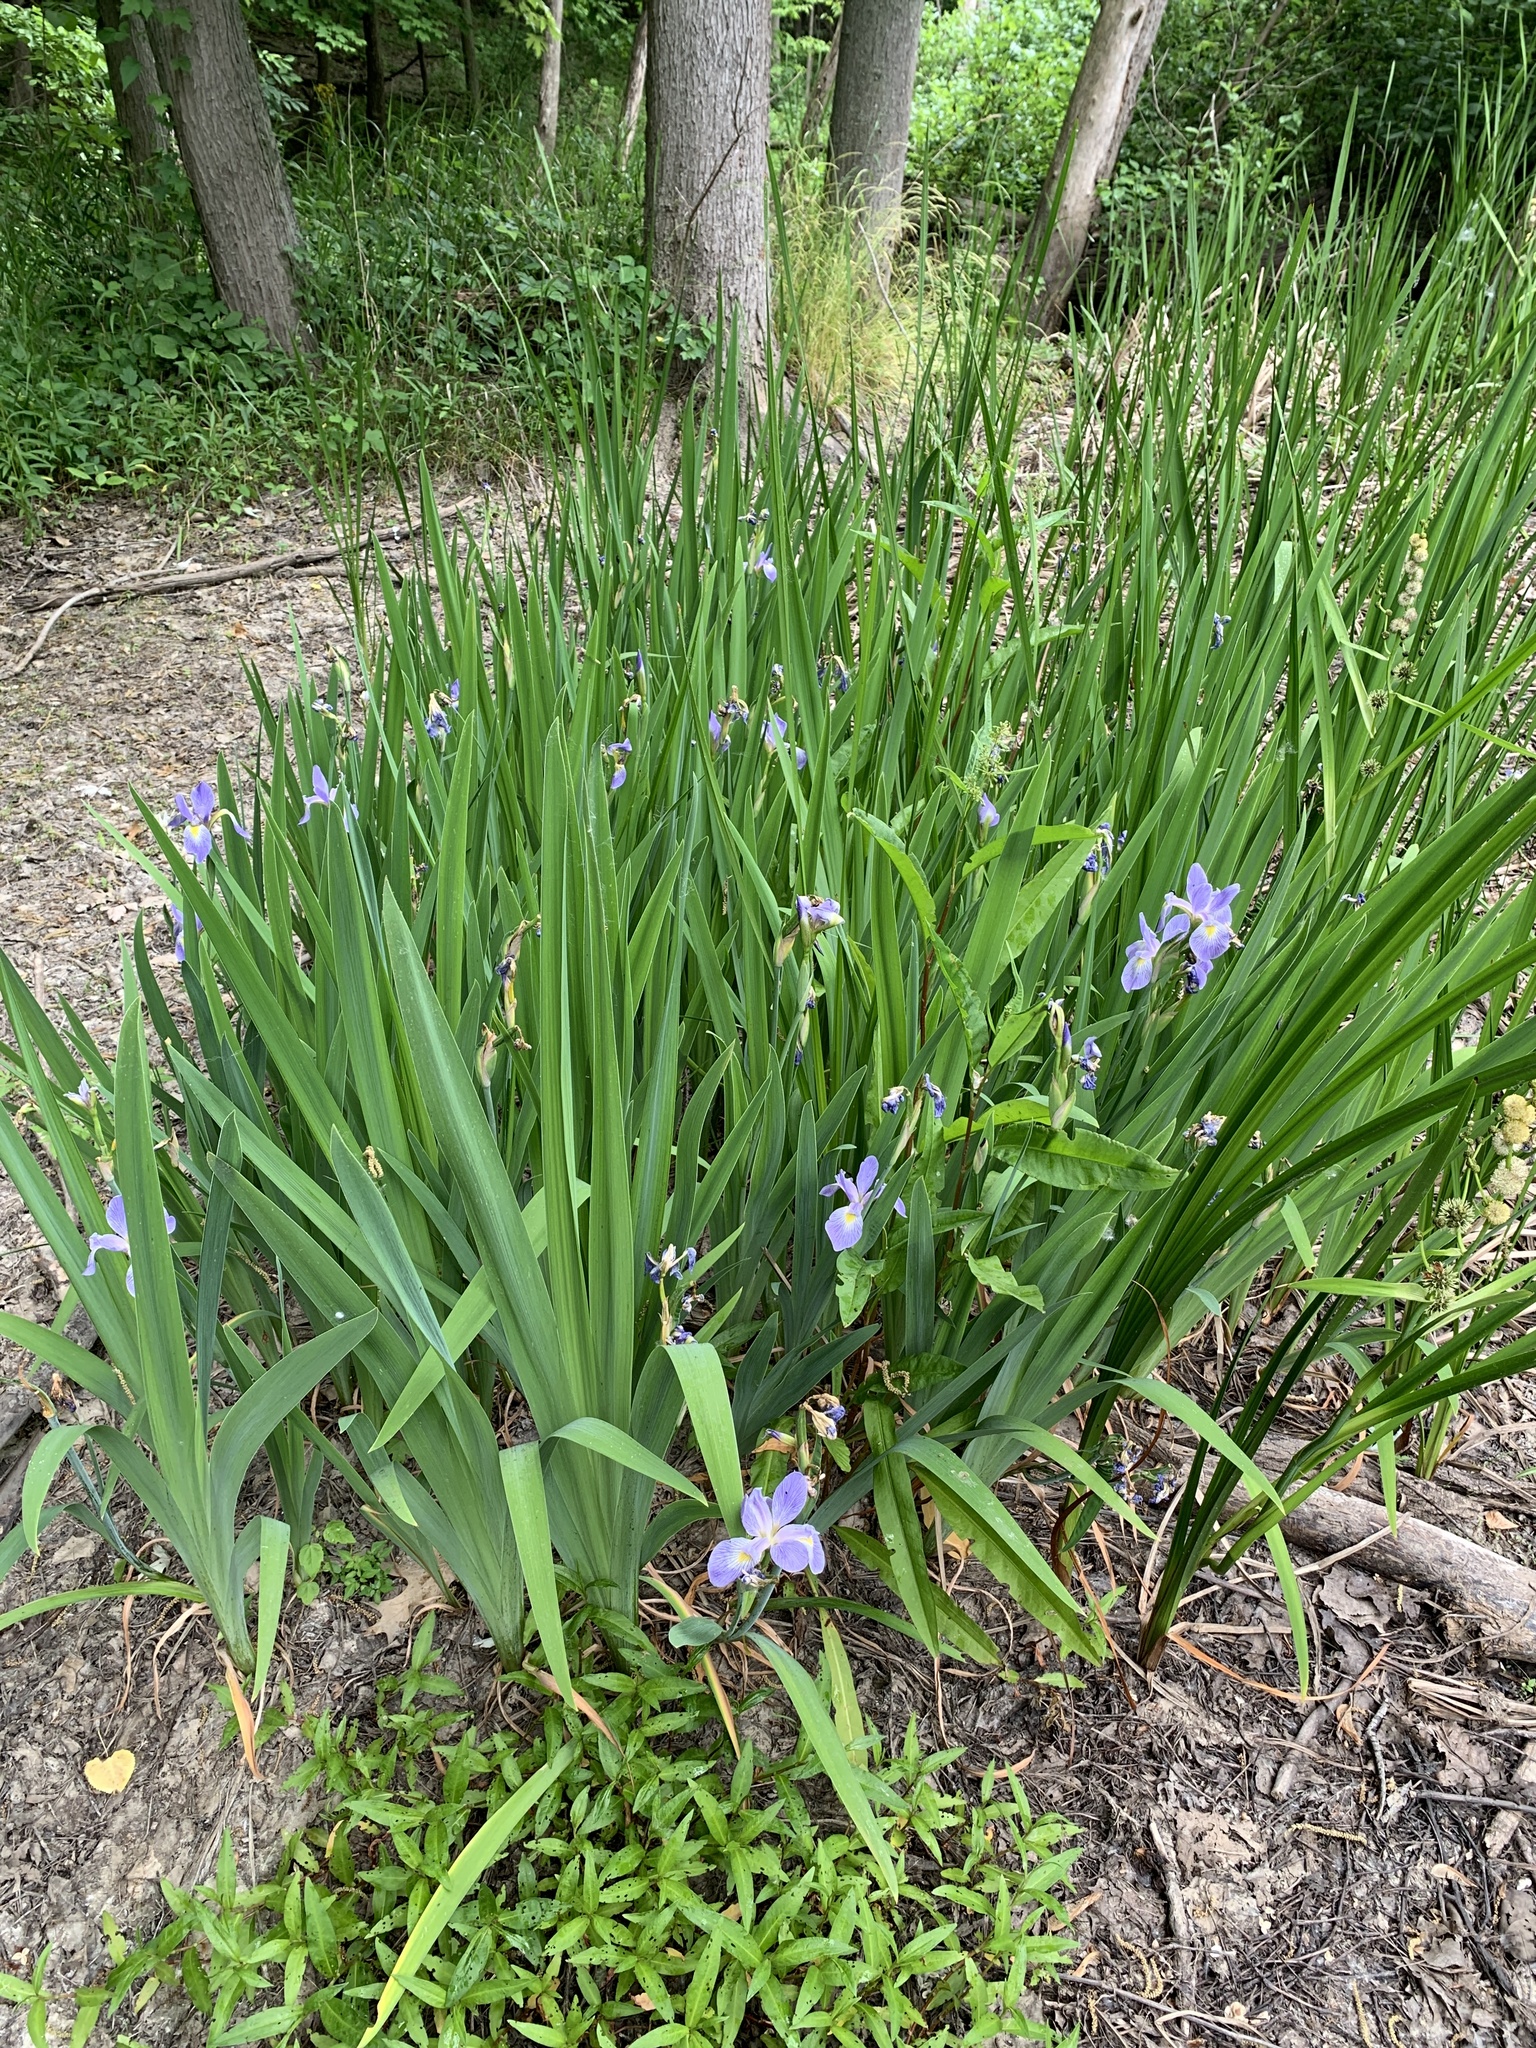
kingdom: Plantae
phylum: Tracheophyta
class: Liliopsida
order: Asparagales
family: Iridaceae
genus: Iris
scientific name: Iris virginica
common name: Southern blue flag
